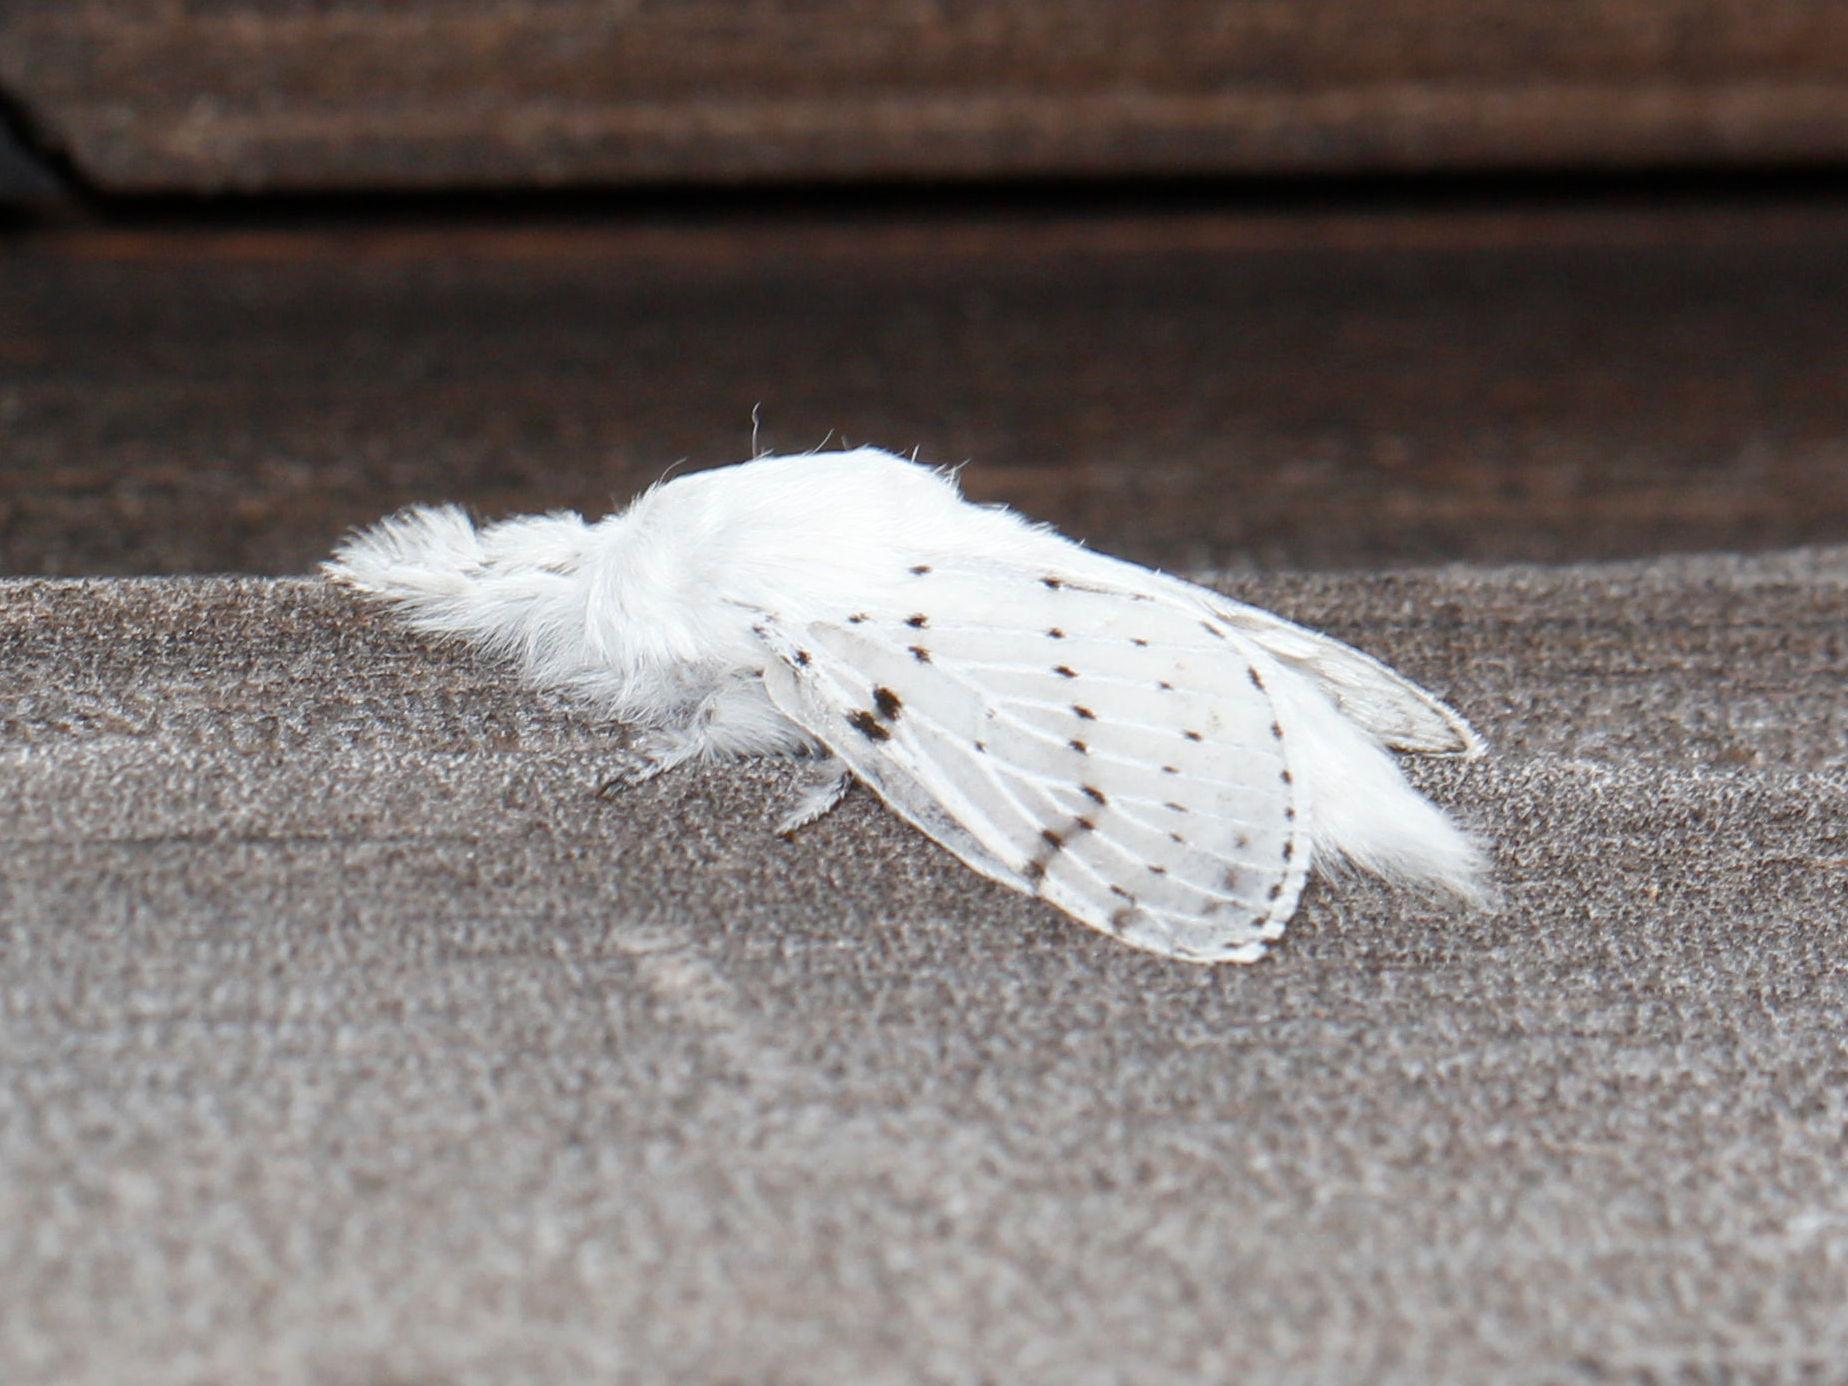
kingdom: Animalia
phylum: Arthropoda
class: Insecta
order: Lepidoptera
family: Lasiocampidae
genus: Artace
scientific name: Artace cribrarius
